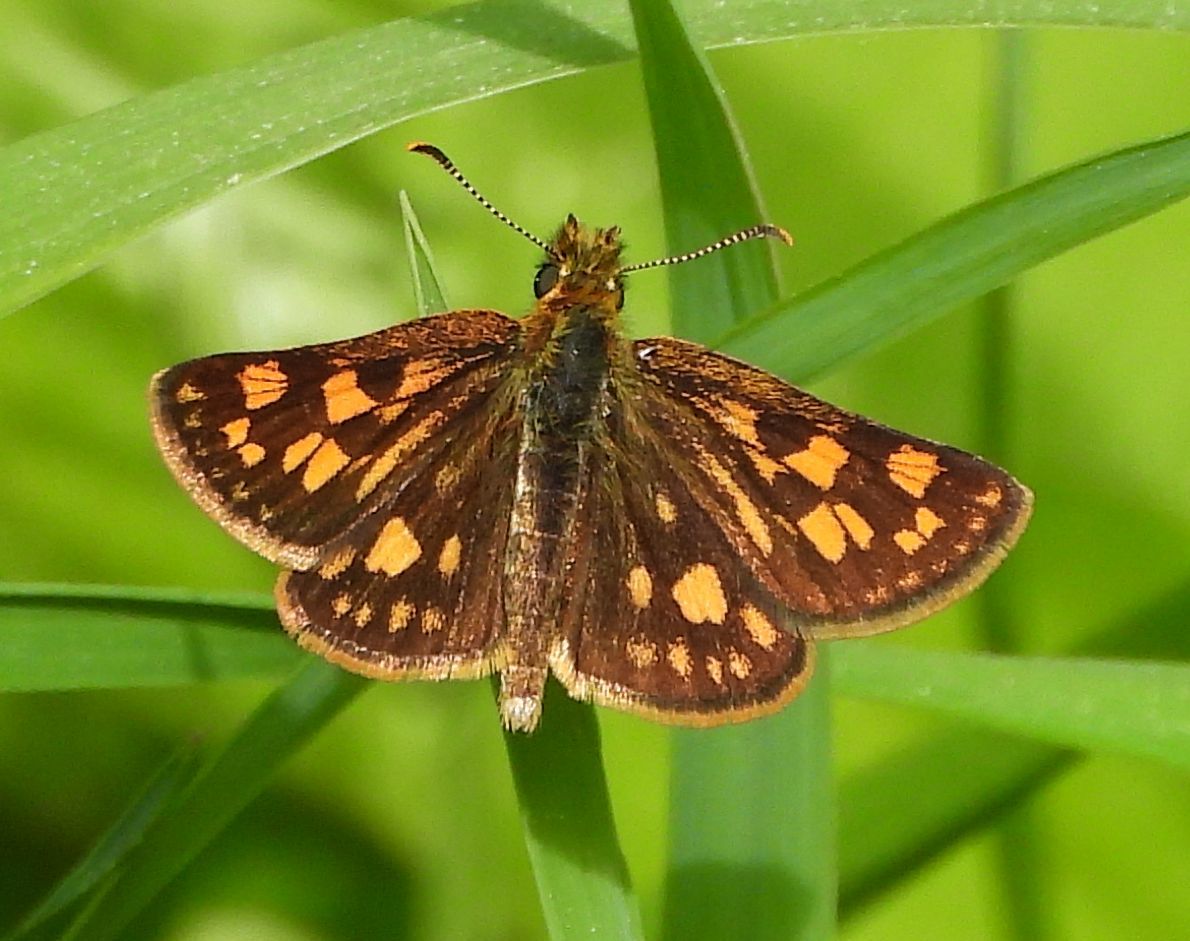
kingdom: Animalia
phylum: Arthropoda
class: Insecta
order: Lepidoptera
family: Hesperiidae
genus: Carterocephalus
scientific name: Carterocephalus mandan
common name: Arctic skipperling
